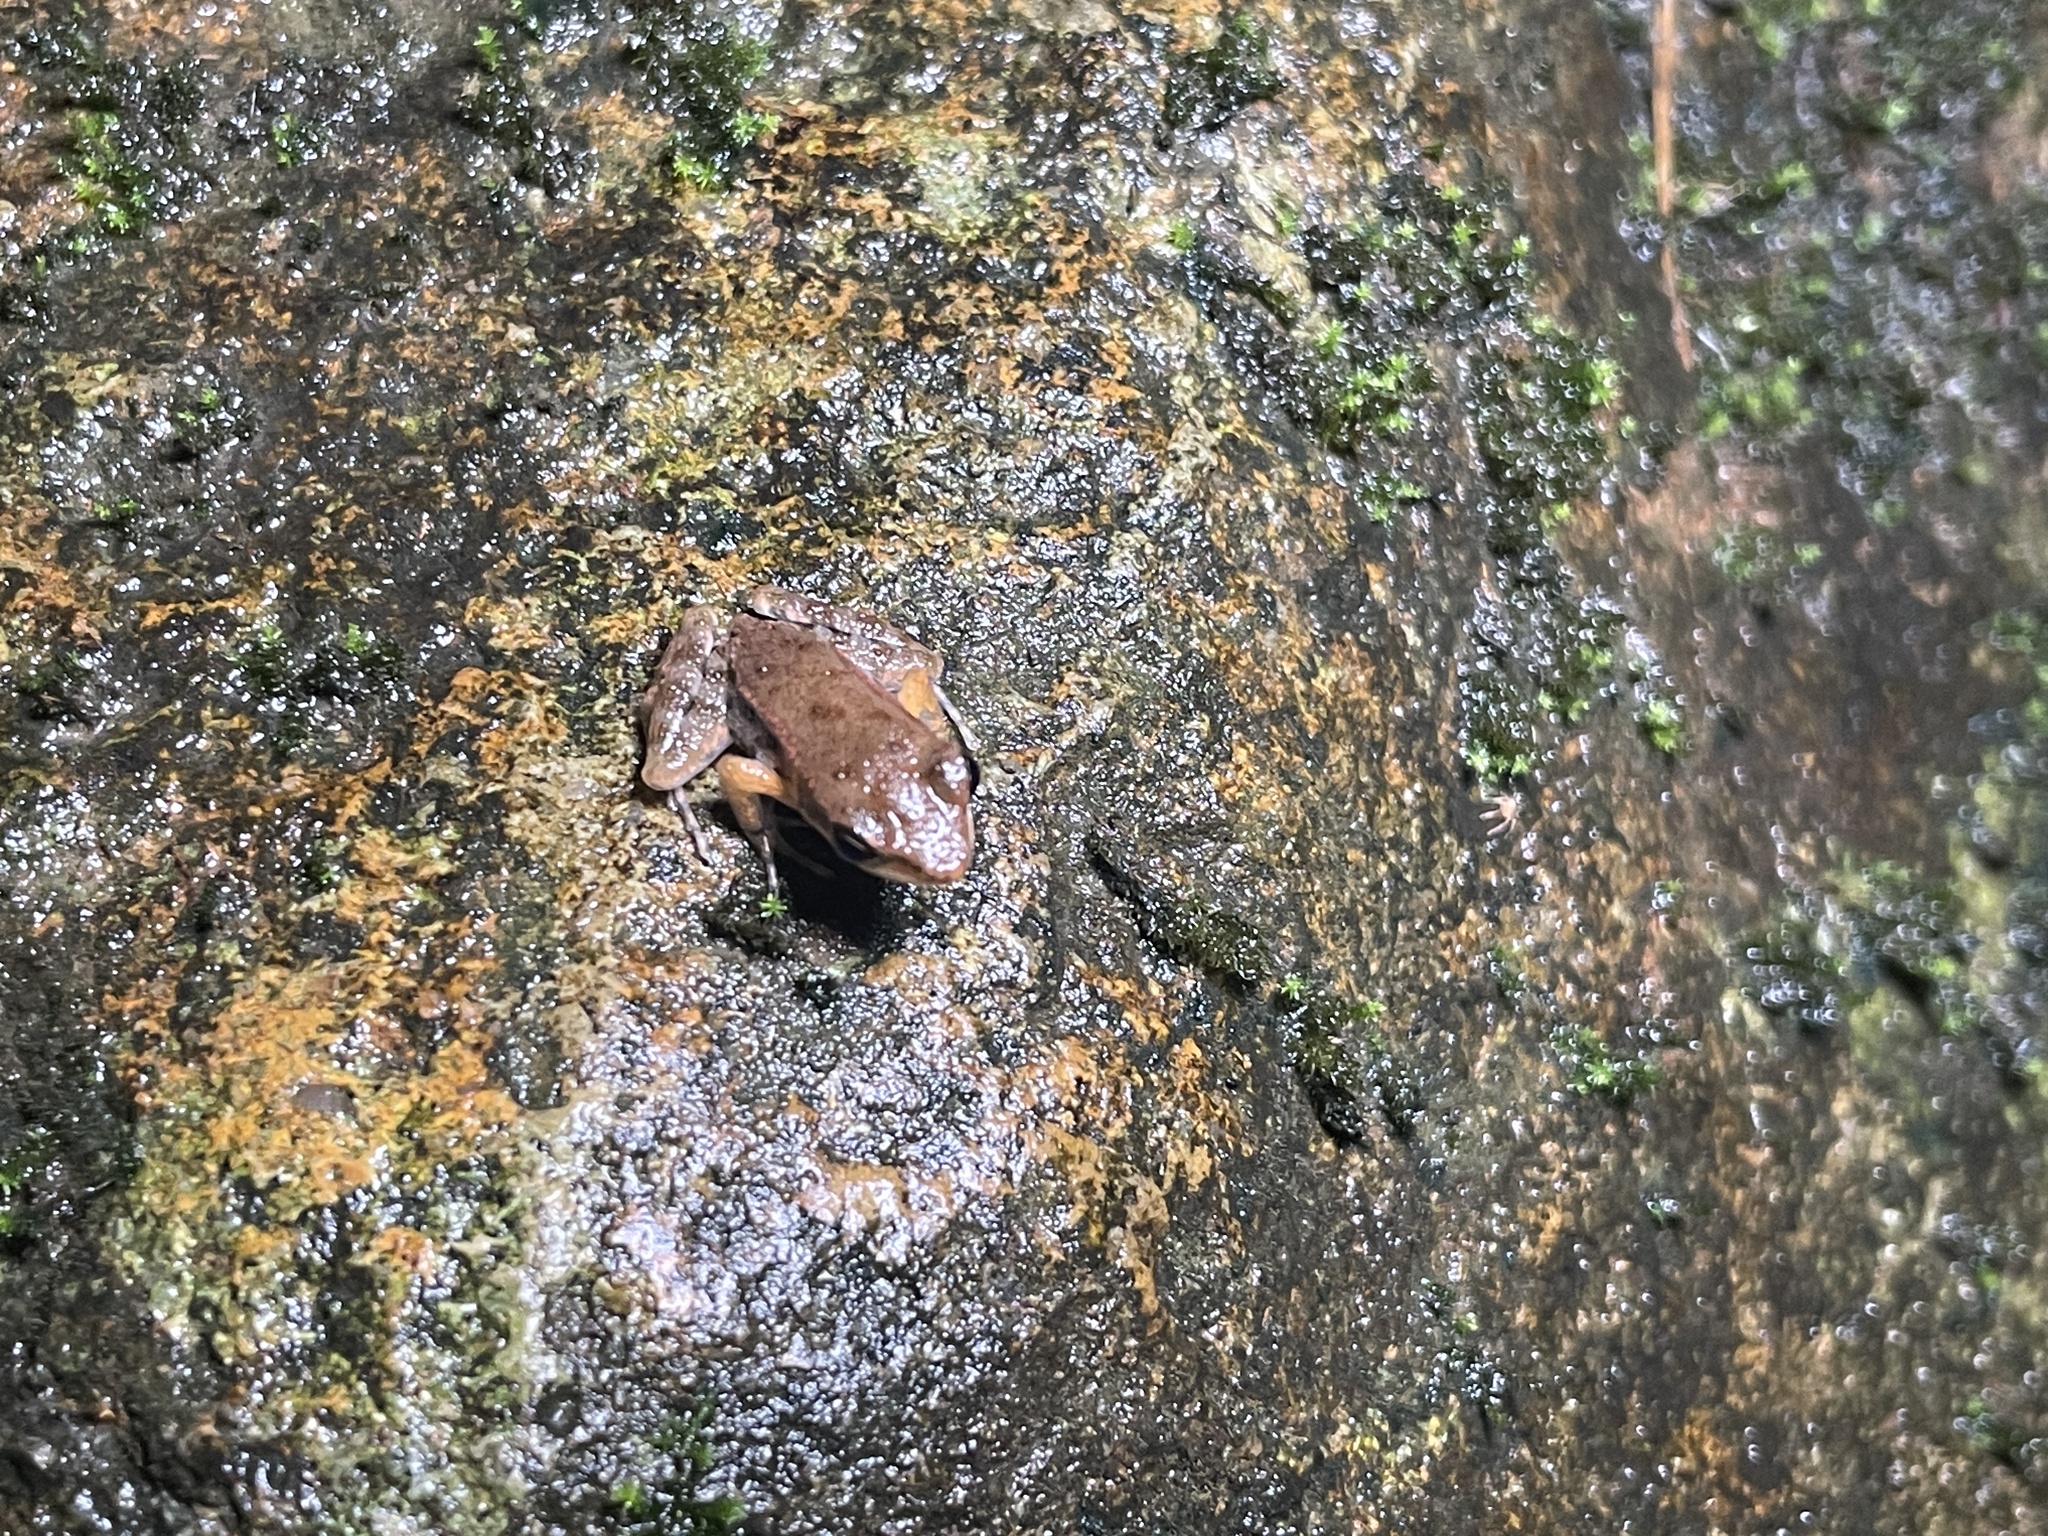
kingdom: Animalia
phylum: Chordata
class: Amphibia
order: Anura
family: Ranidae
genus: Hylarana
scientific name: Hylarana latouchii
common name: Broad-folded frog
